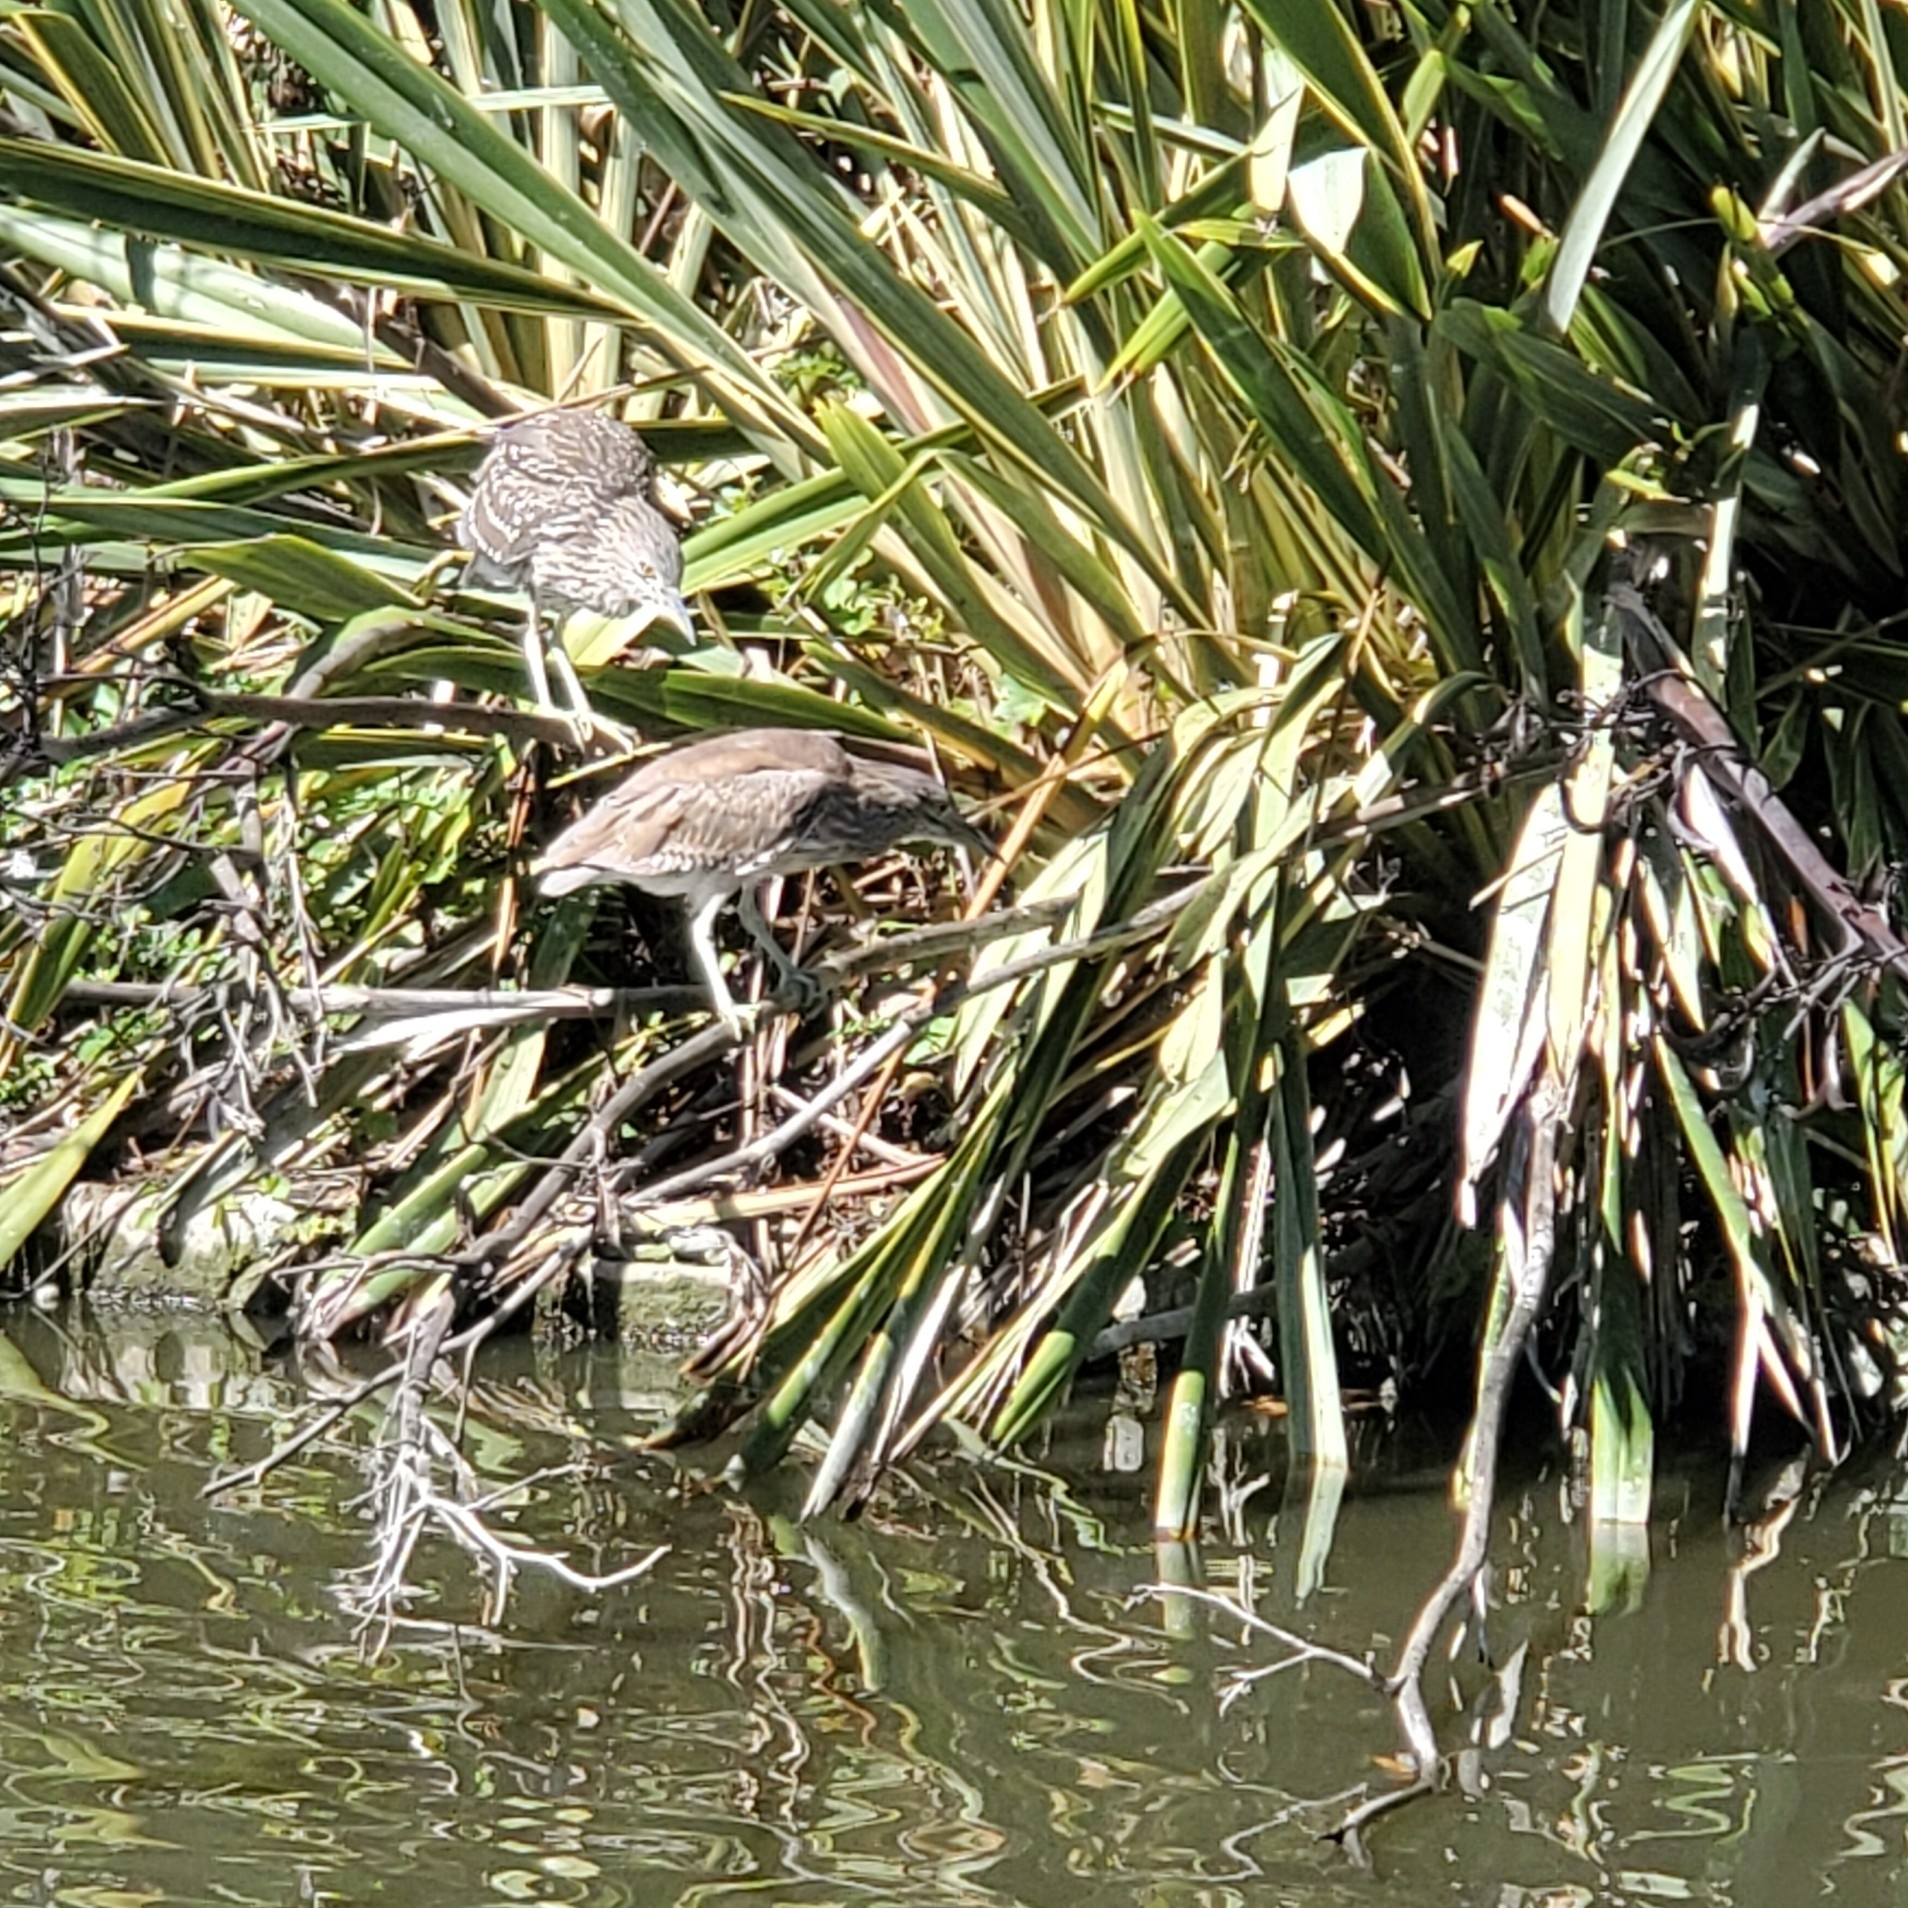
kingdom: Animalia
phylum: Chordata
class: Aves
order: Pelecaniformes
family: Ardeidae
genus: Nycticorax
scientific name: Nycticorax nycticorax
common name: Black-crowned night heron
